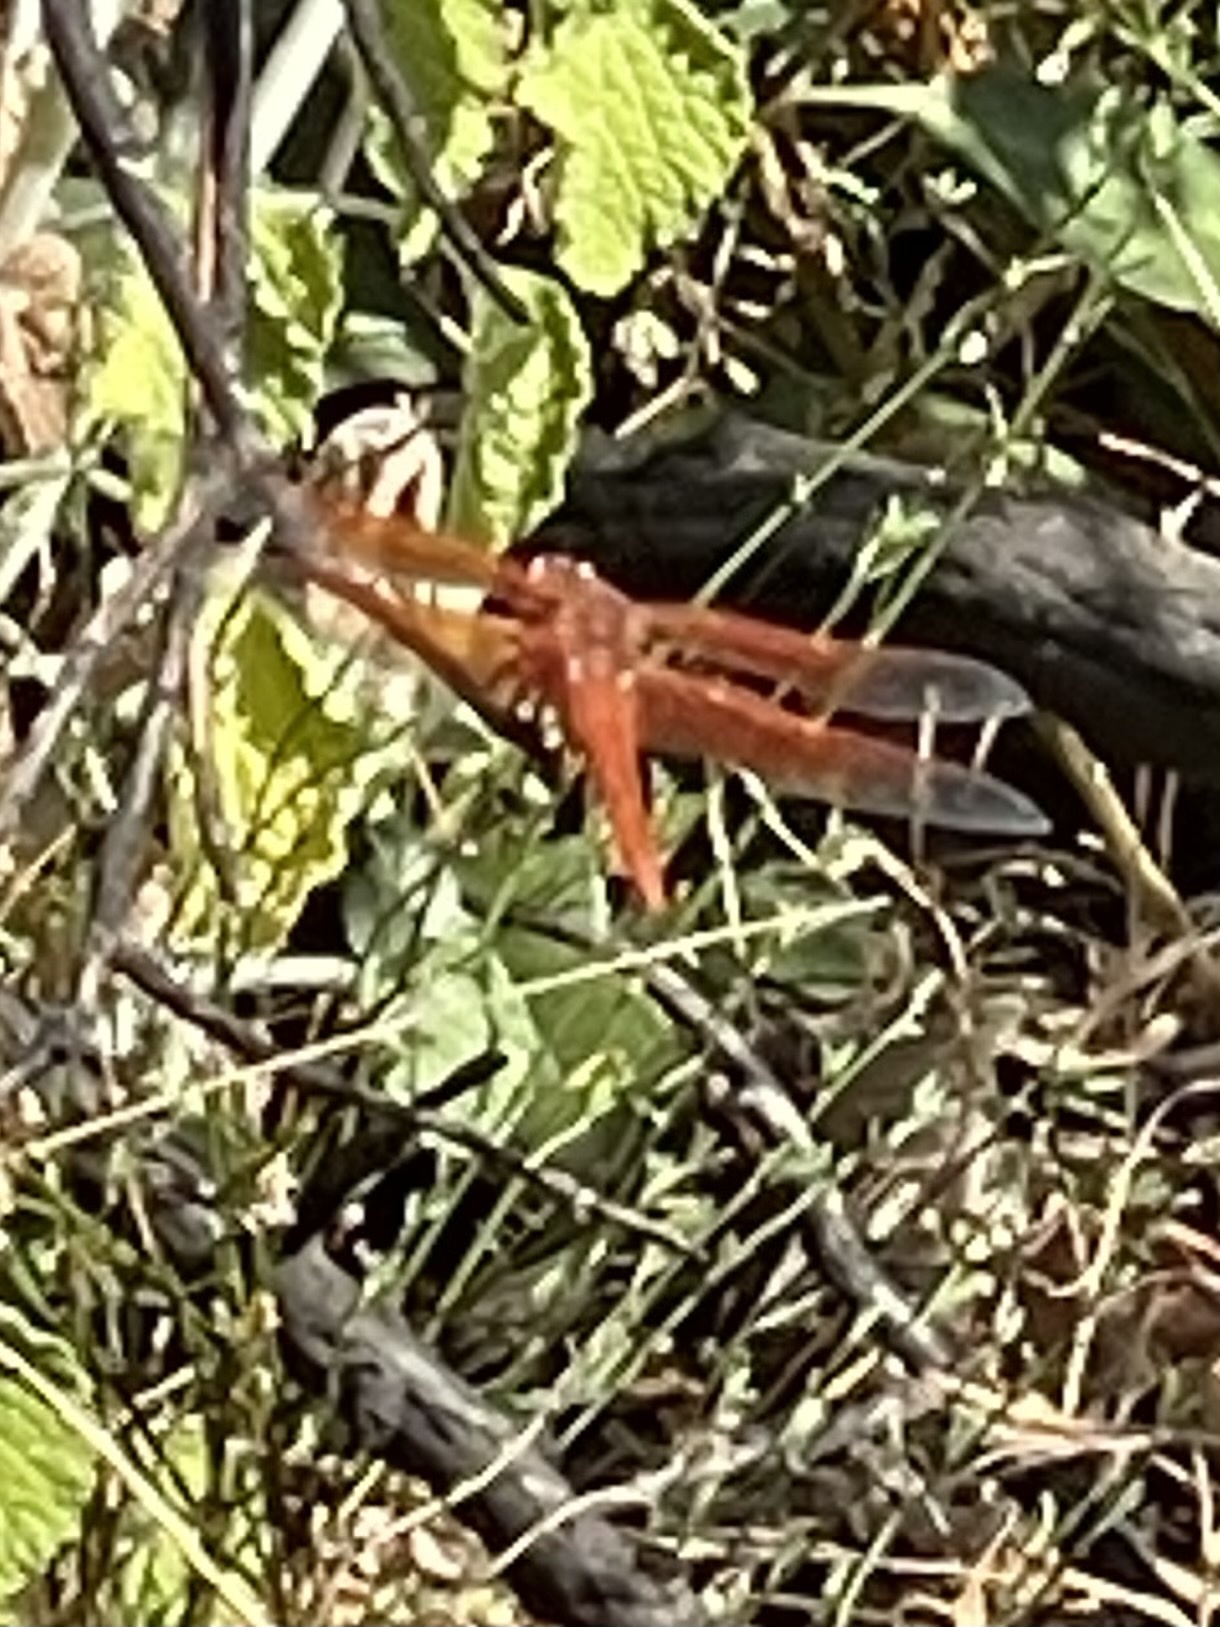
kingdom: Animalia
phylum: Arthropoda
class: Insecta
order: Odonata
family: Libellulidae
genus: Libellula
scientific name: Libellula saturata
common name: Flame skimmer
